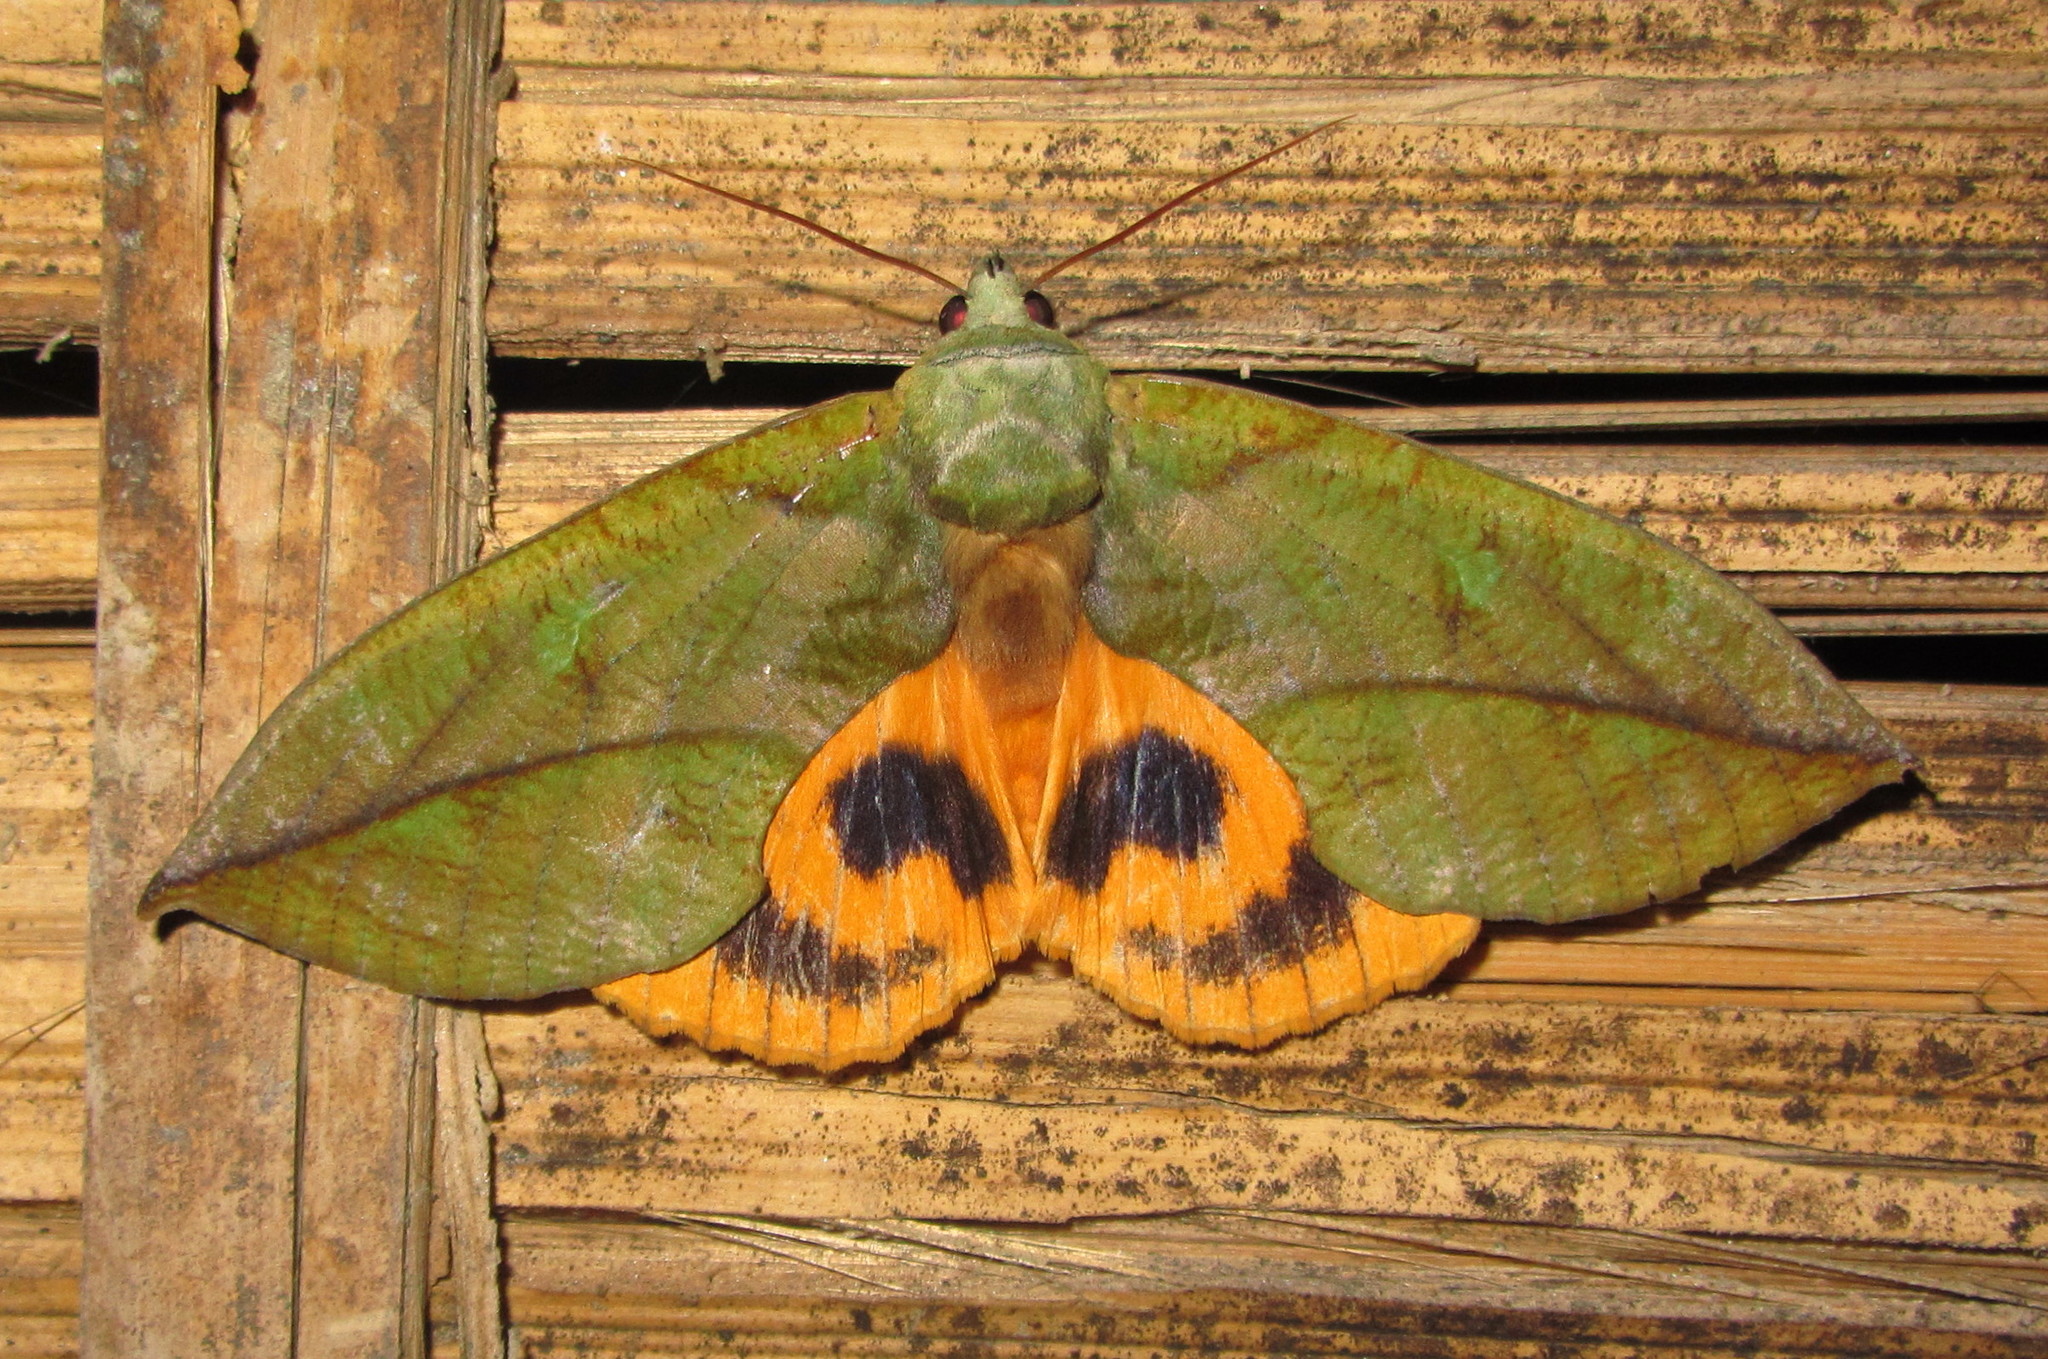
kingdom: Animalia
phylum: Arthropoda
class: Insecta
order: Lepidoptera
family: Erebidae
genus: Eudocima
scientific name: Eudocima sikhimensis
